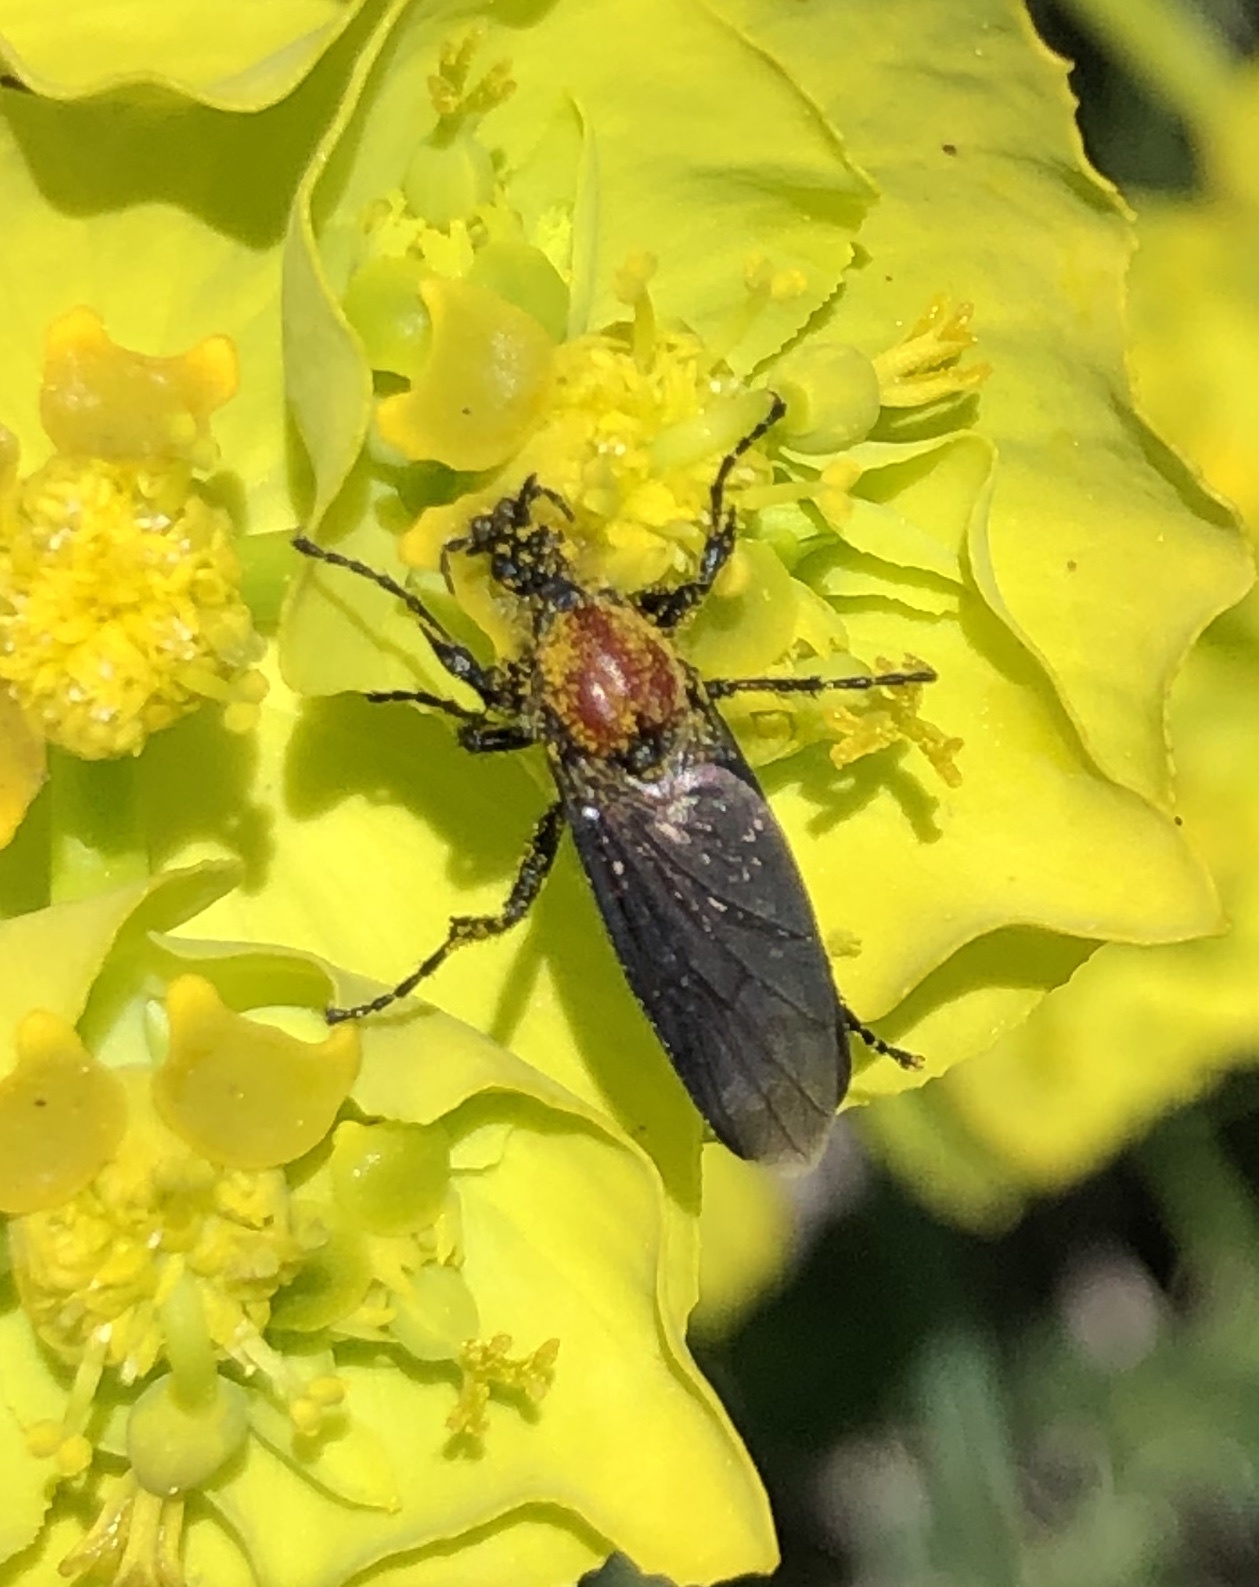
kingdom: Animalia
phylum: Arthropoda
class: Insecta
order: Diptera
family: Bibionidae
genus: Bibio
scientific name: Bibio hortulanus
